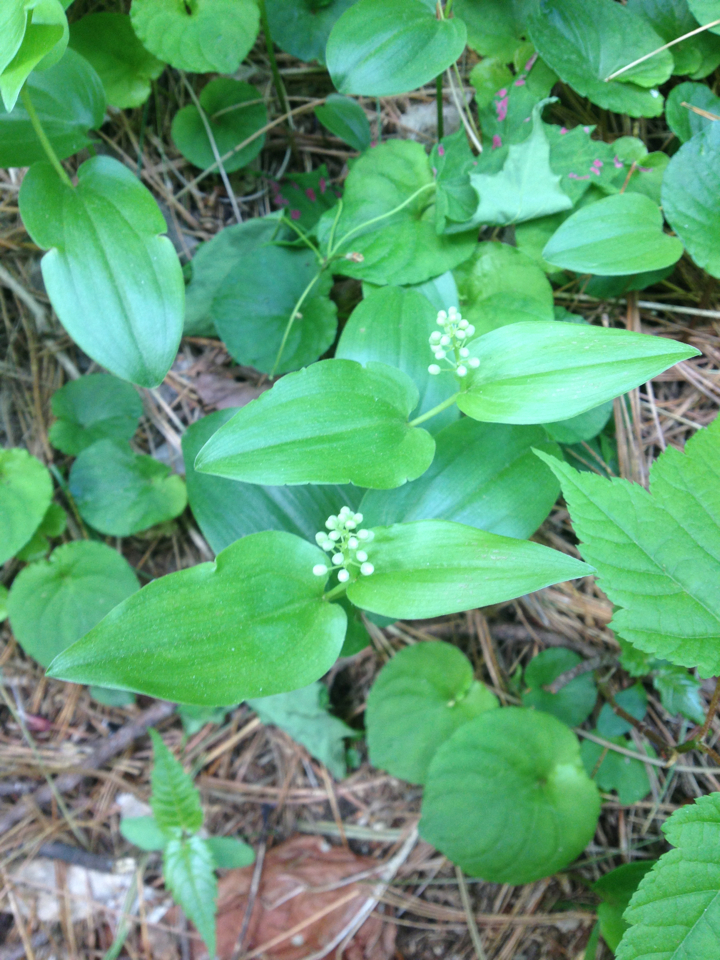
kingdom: Plantae
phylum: Tracheophyta
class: Liliopsida
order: Asparagales
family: Asparagaceae
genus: Maianthemum
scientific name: Maianthemum canadense
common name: False lily-of-the-valley
